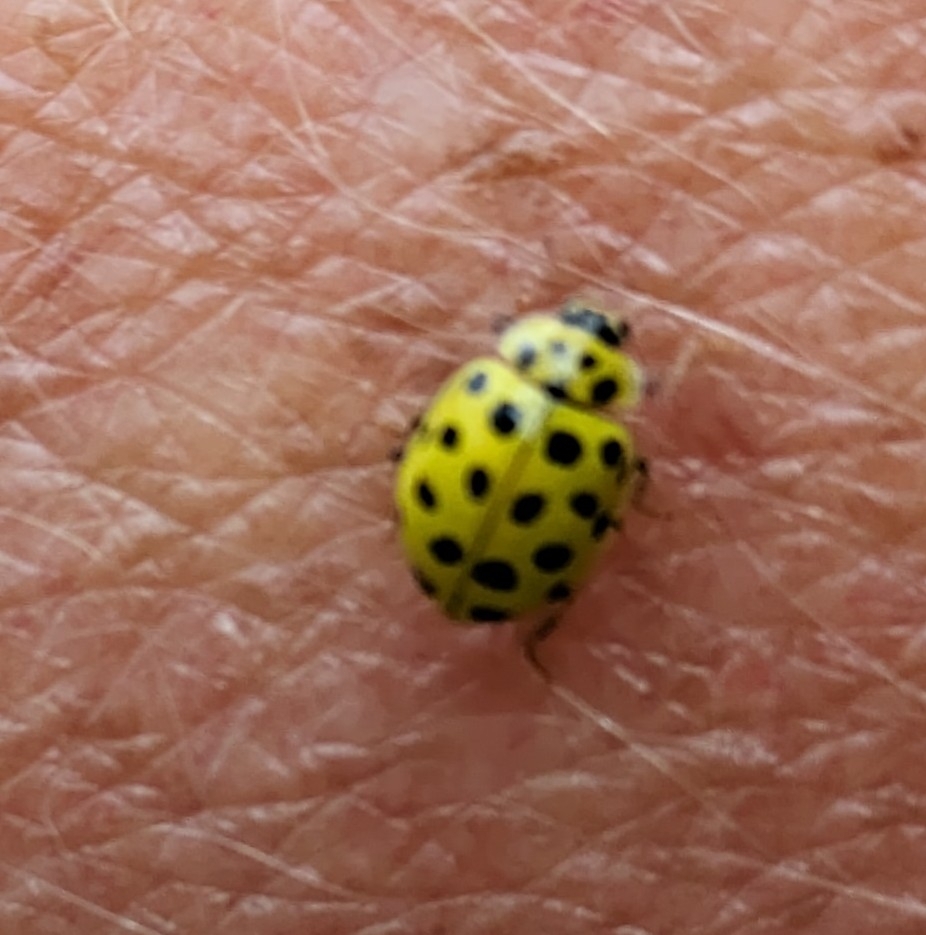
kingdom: Animalia
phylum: Arthropoda
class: Insecta
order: Coleoptera
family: Coccinellidae
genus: Psyllobora
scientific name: Psyllobora vigintiduopunctata
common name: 22-spot ladybird
